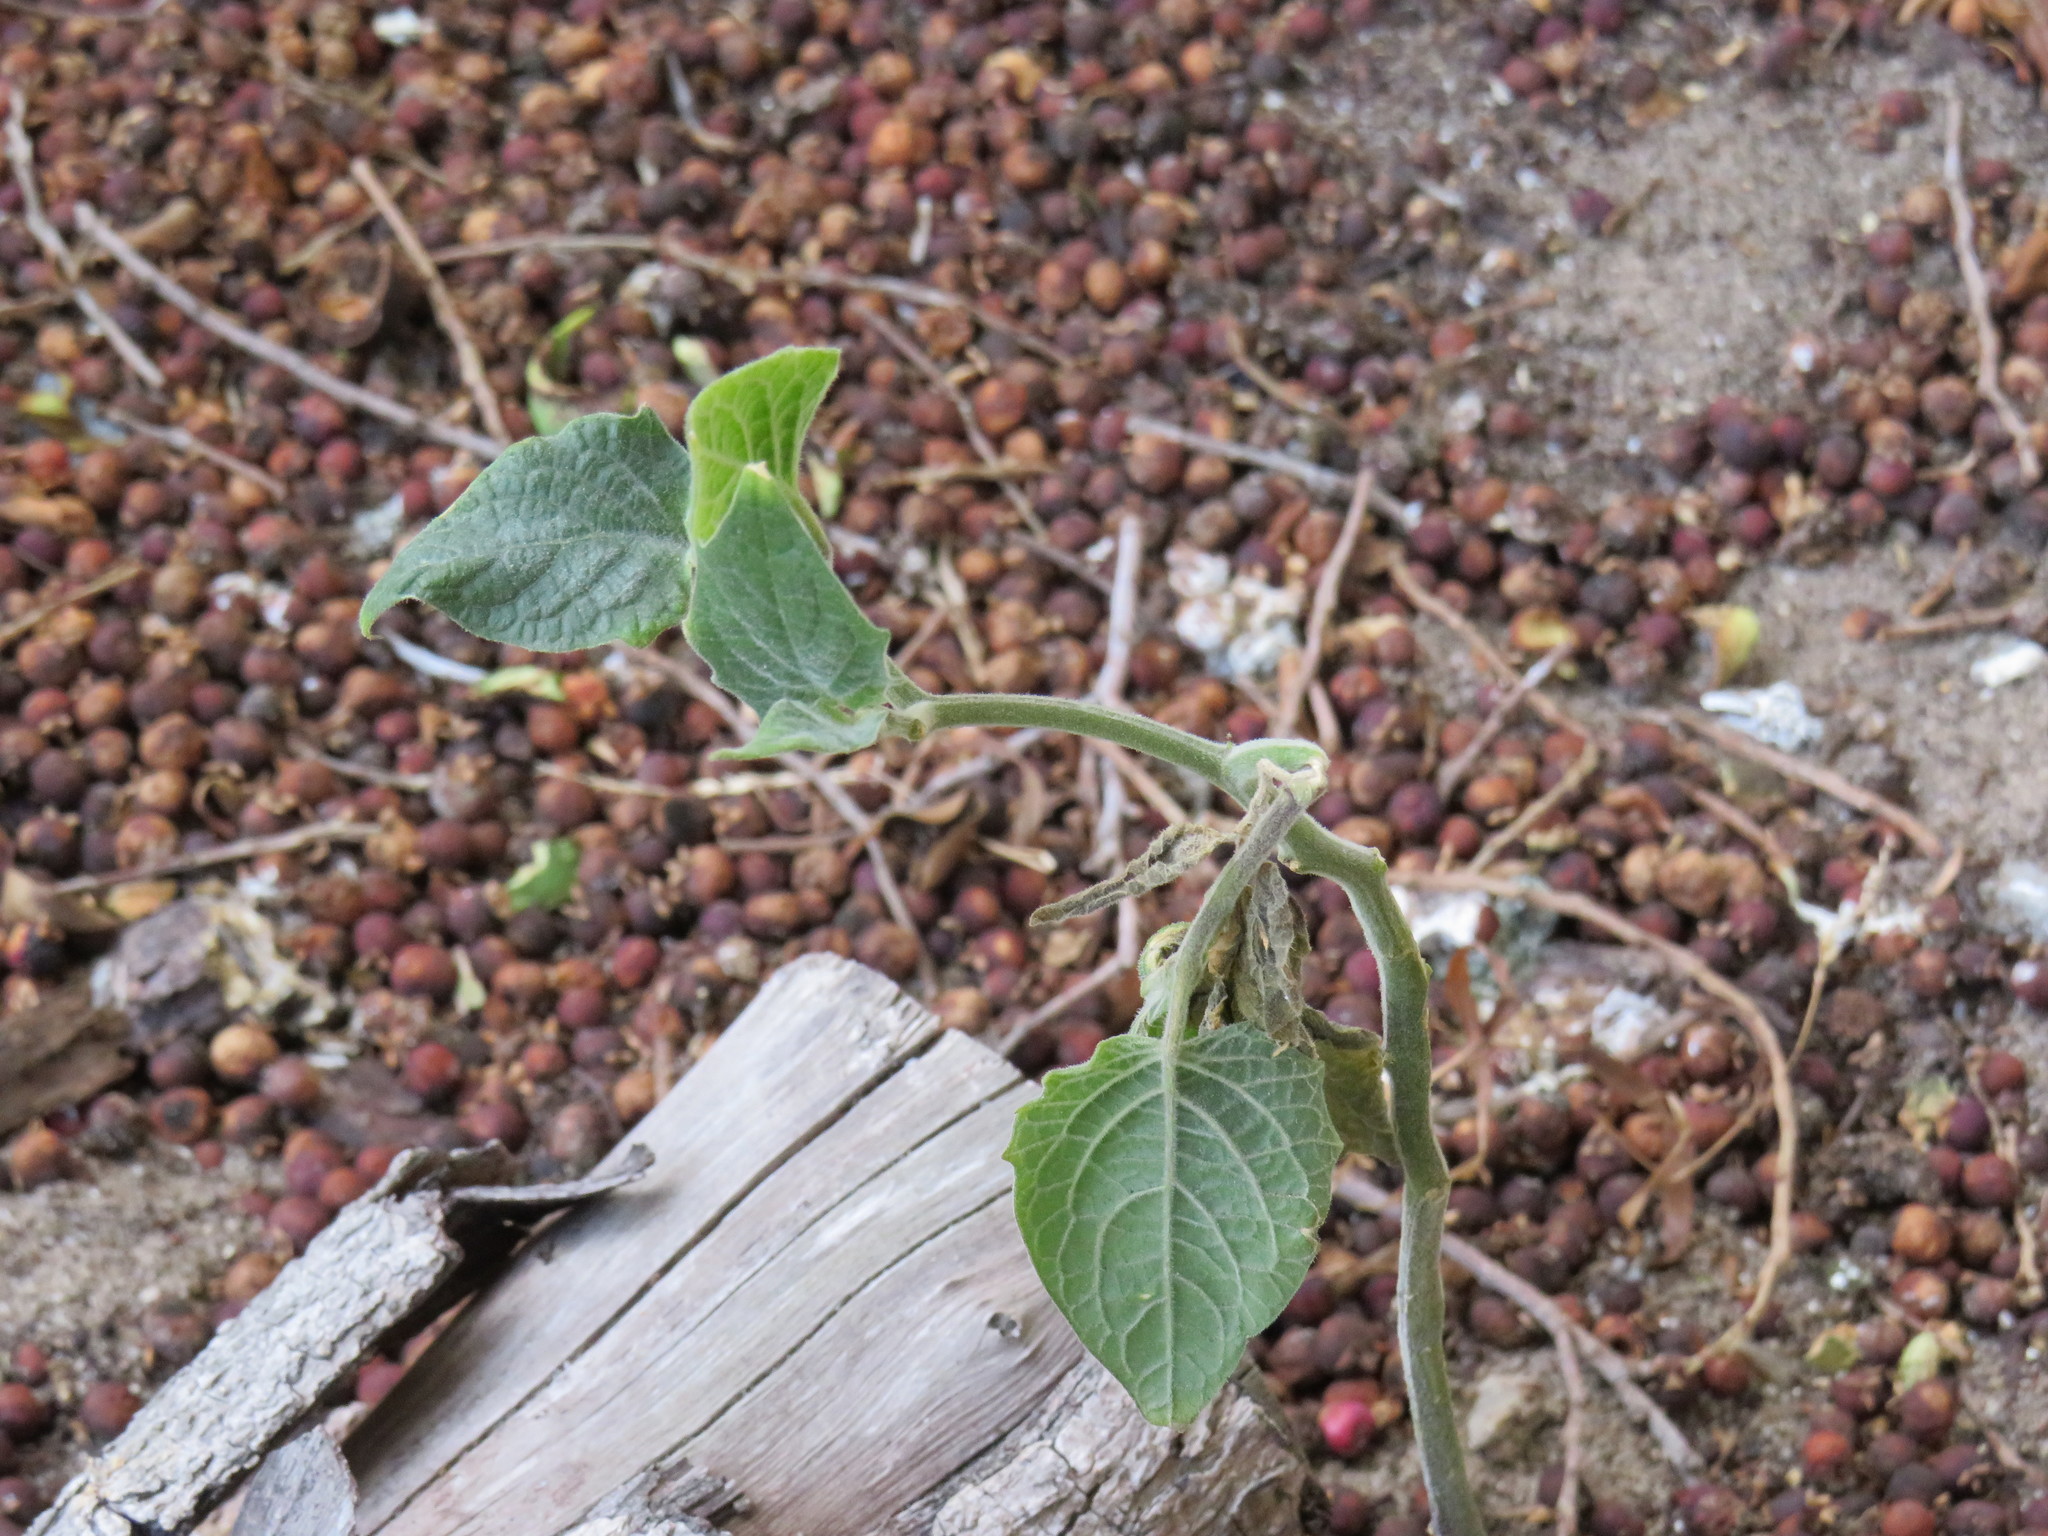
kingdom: Plantae
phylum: Tracheophyta
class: Magnoliopsida
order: Solanales
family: Solanaceae
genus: Physalis
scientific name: Physalis peruviana
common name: Cape-gooseberry
